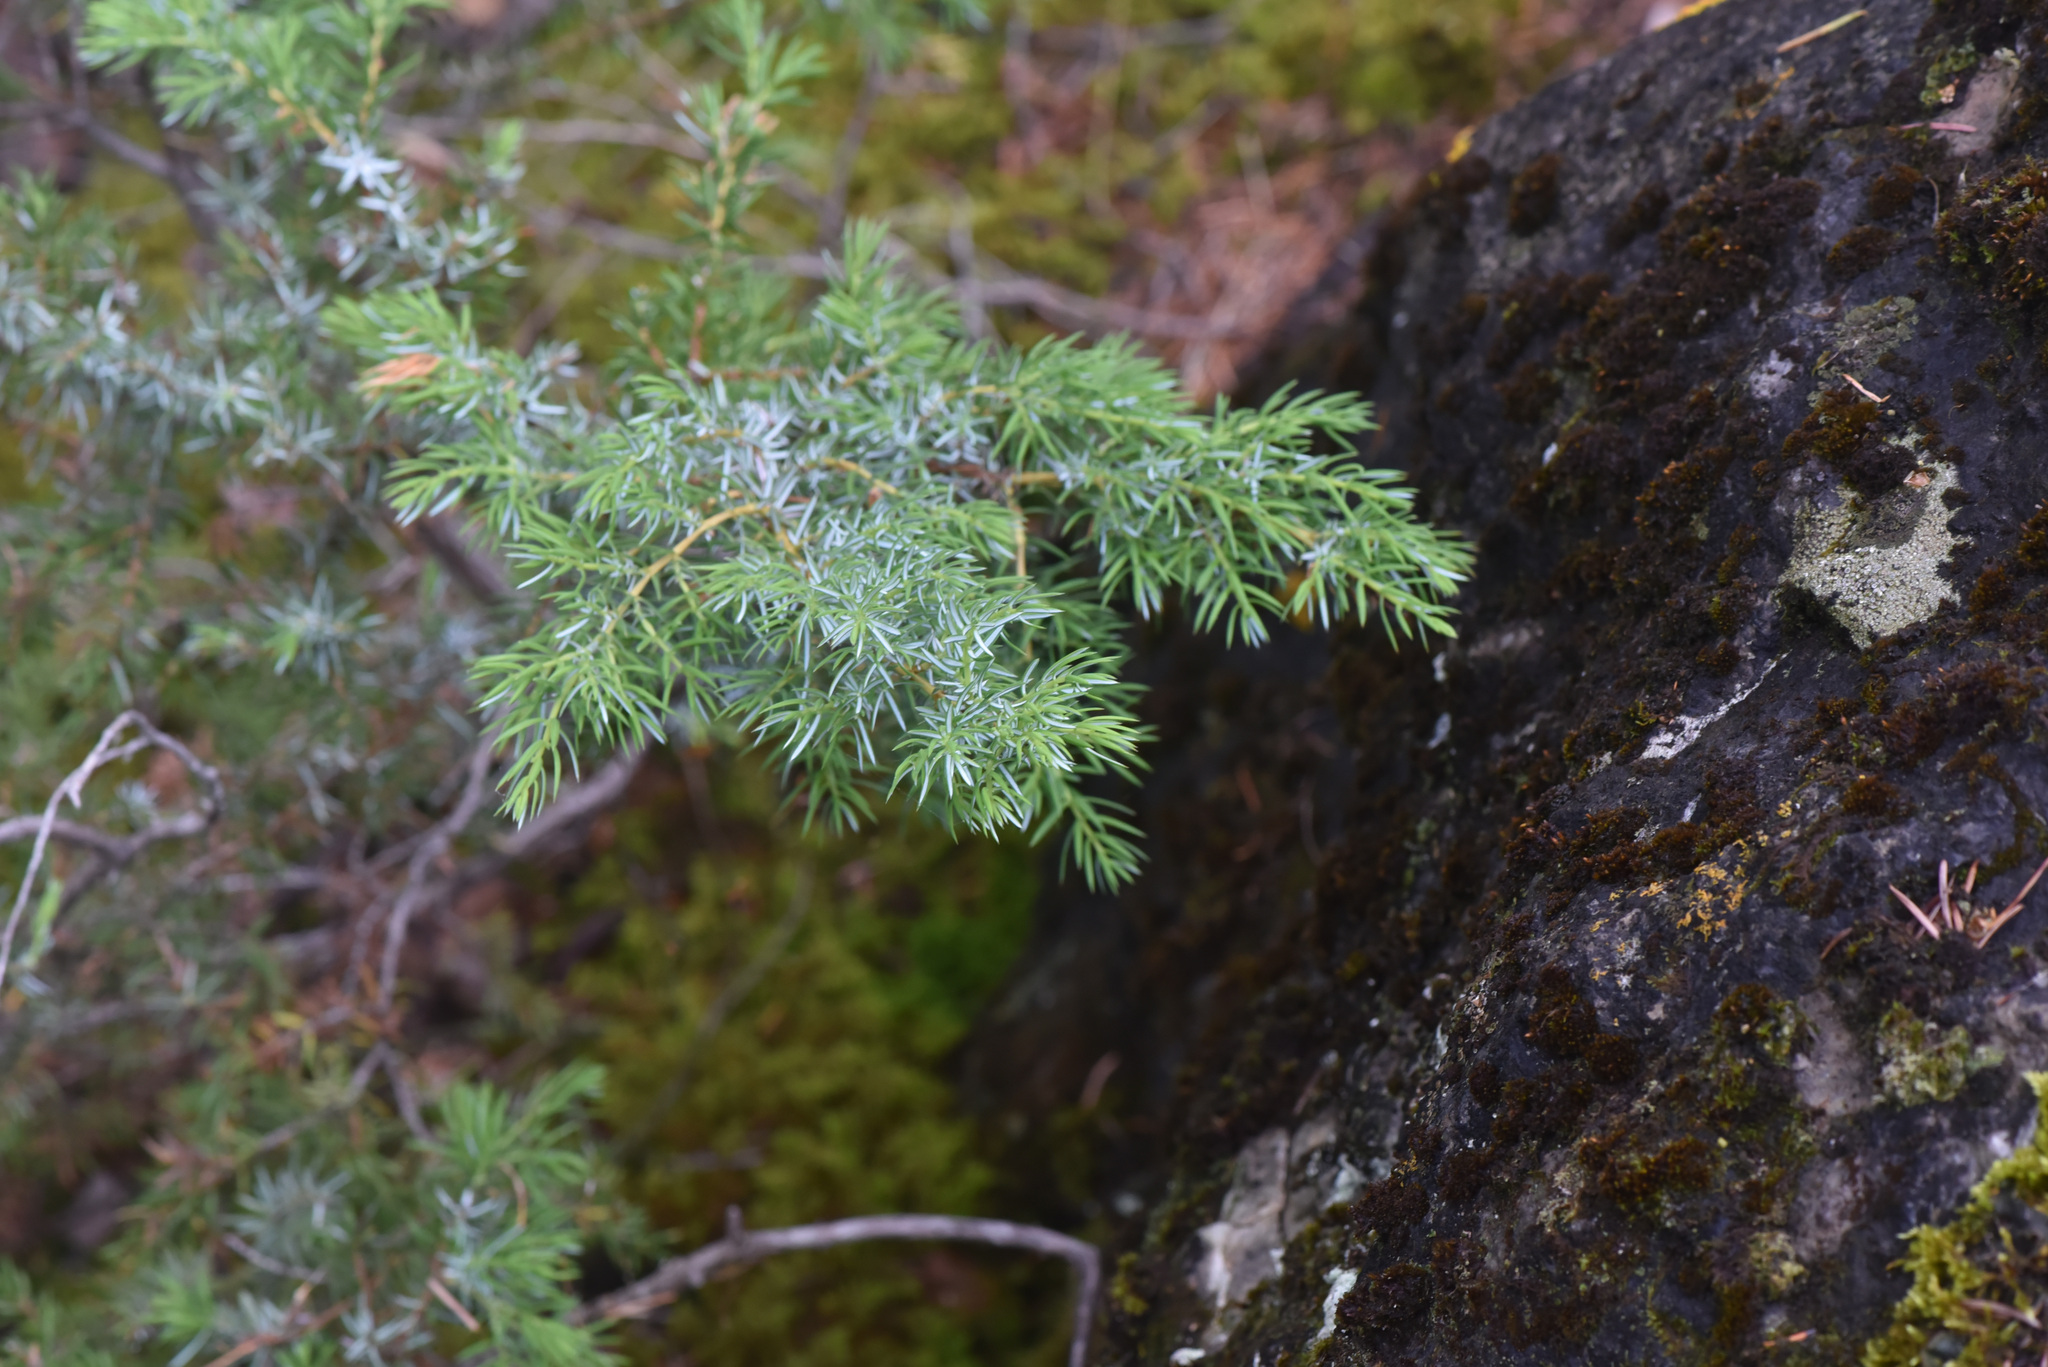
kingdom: Plantae
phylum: Tracheophyta
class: Pinopsida
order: Pinales
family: Cupressaceae
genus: Juniperus
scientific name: Juniperus communis
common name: Common juniper
